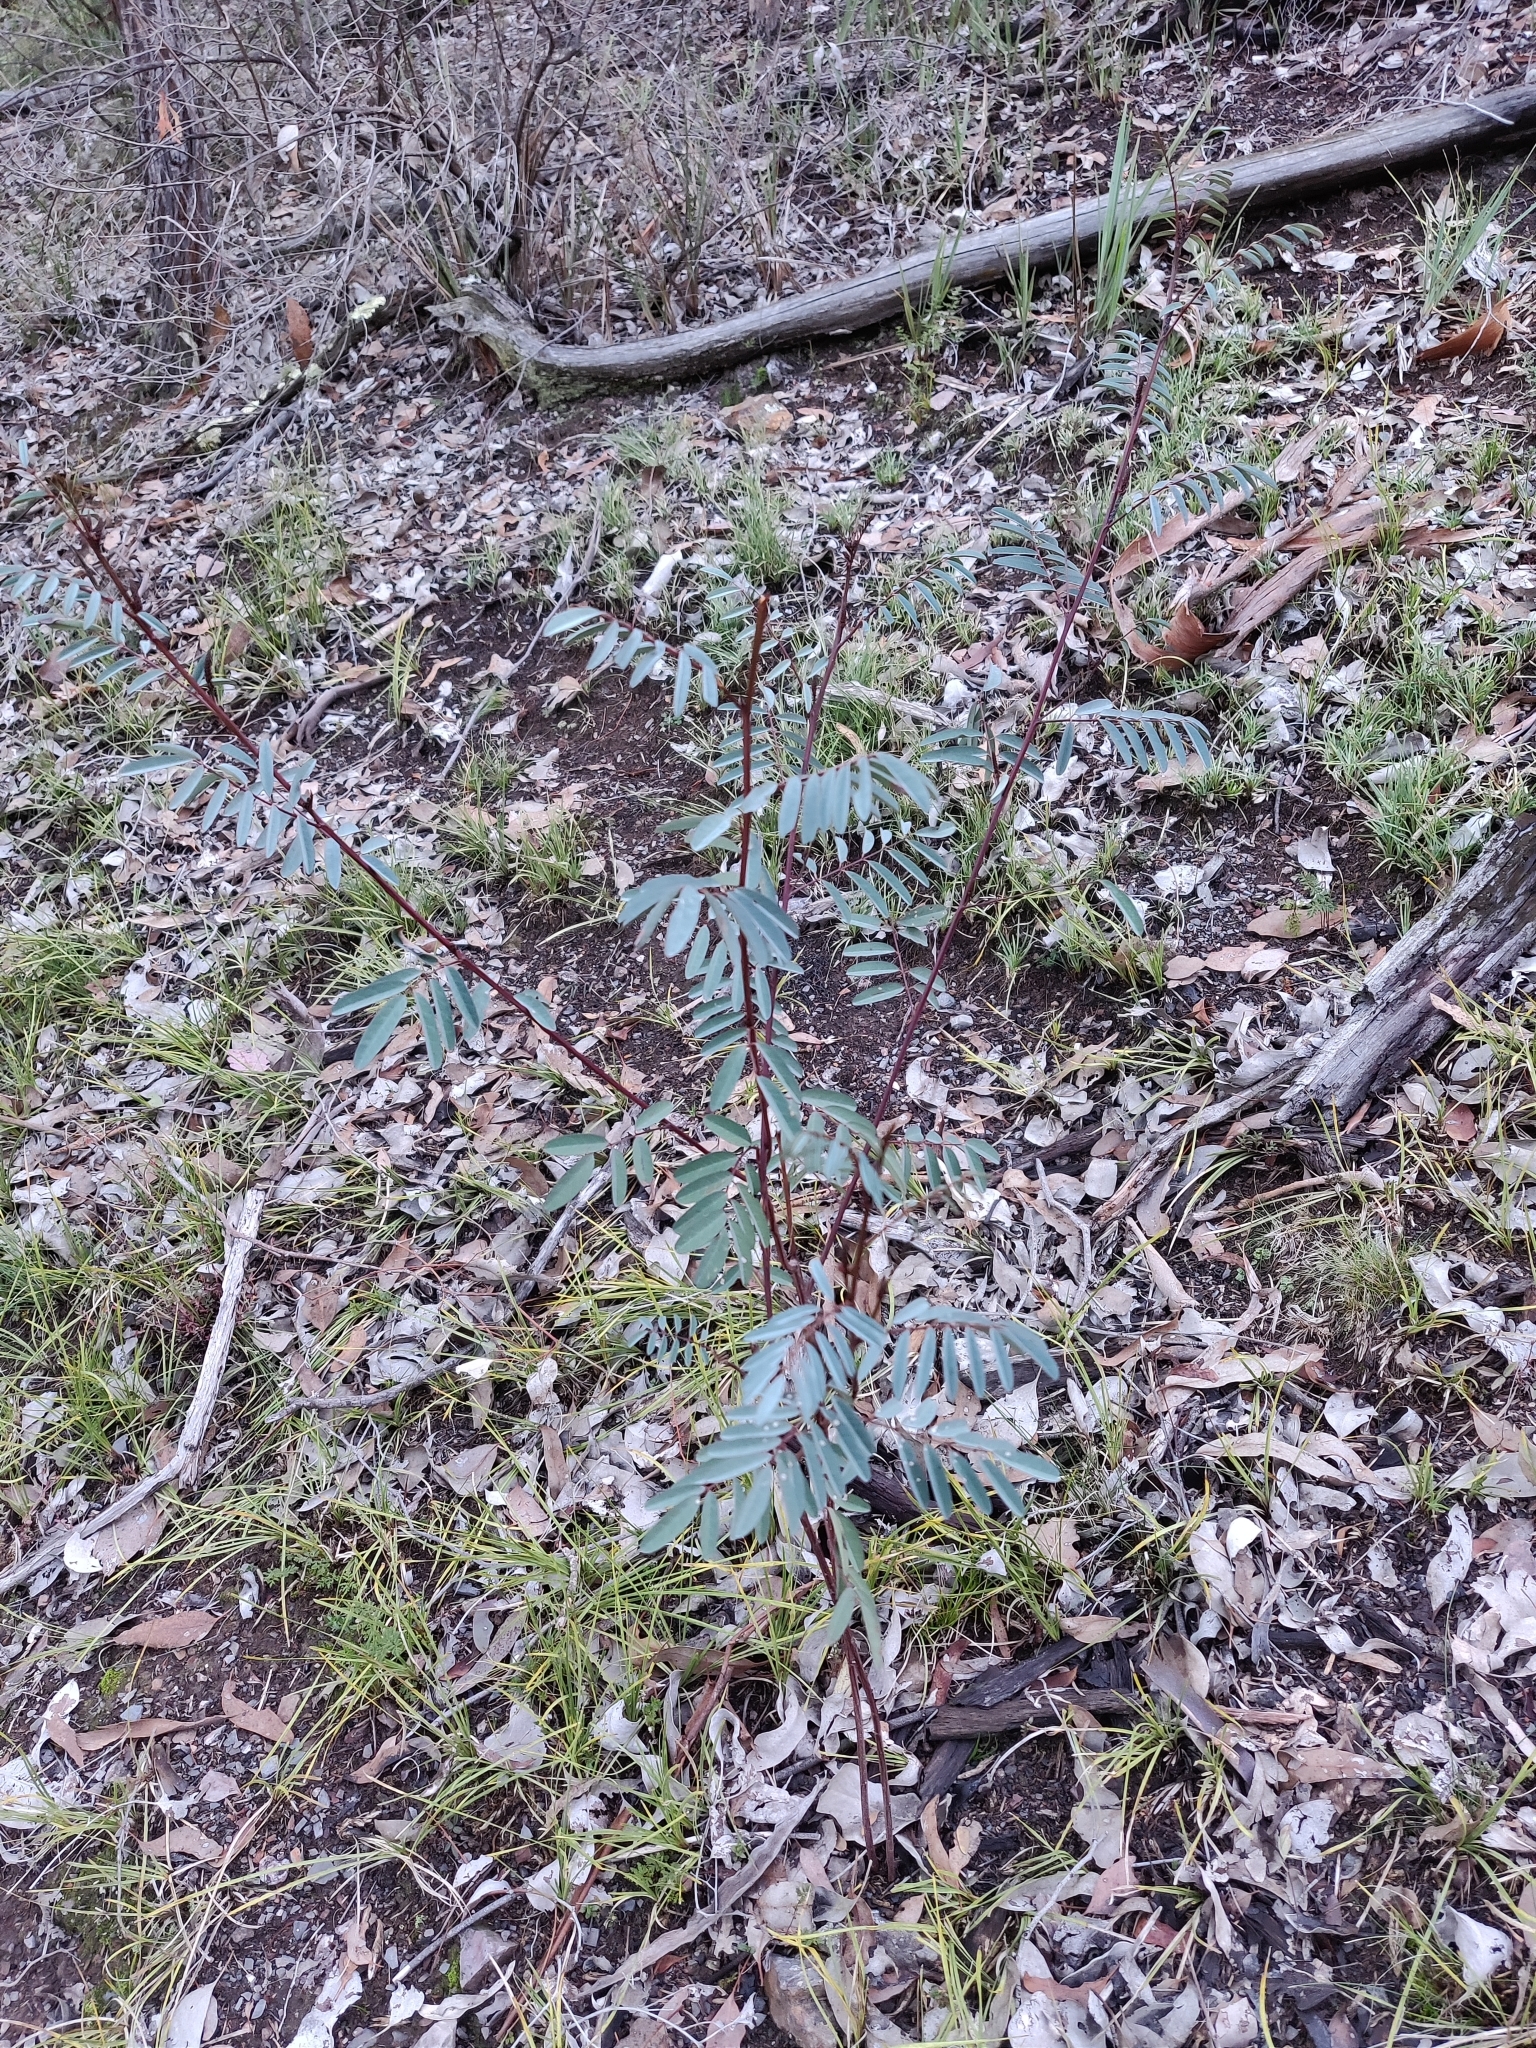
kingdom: Plantae
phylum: Tracheophyta
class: Magnoliopsida
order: Fabales
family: Fabaceae
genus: Indigofera
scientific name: Indigofera australis
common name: Australian indigo
